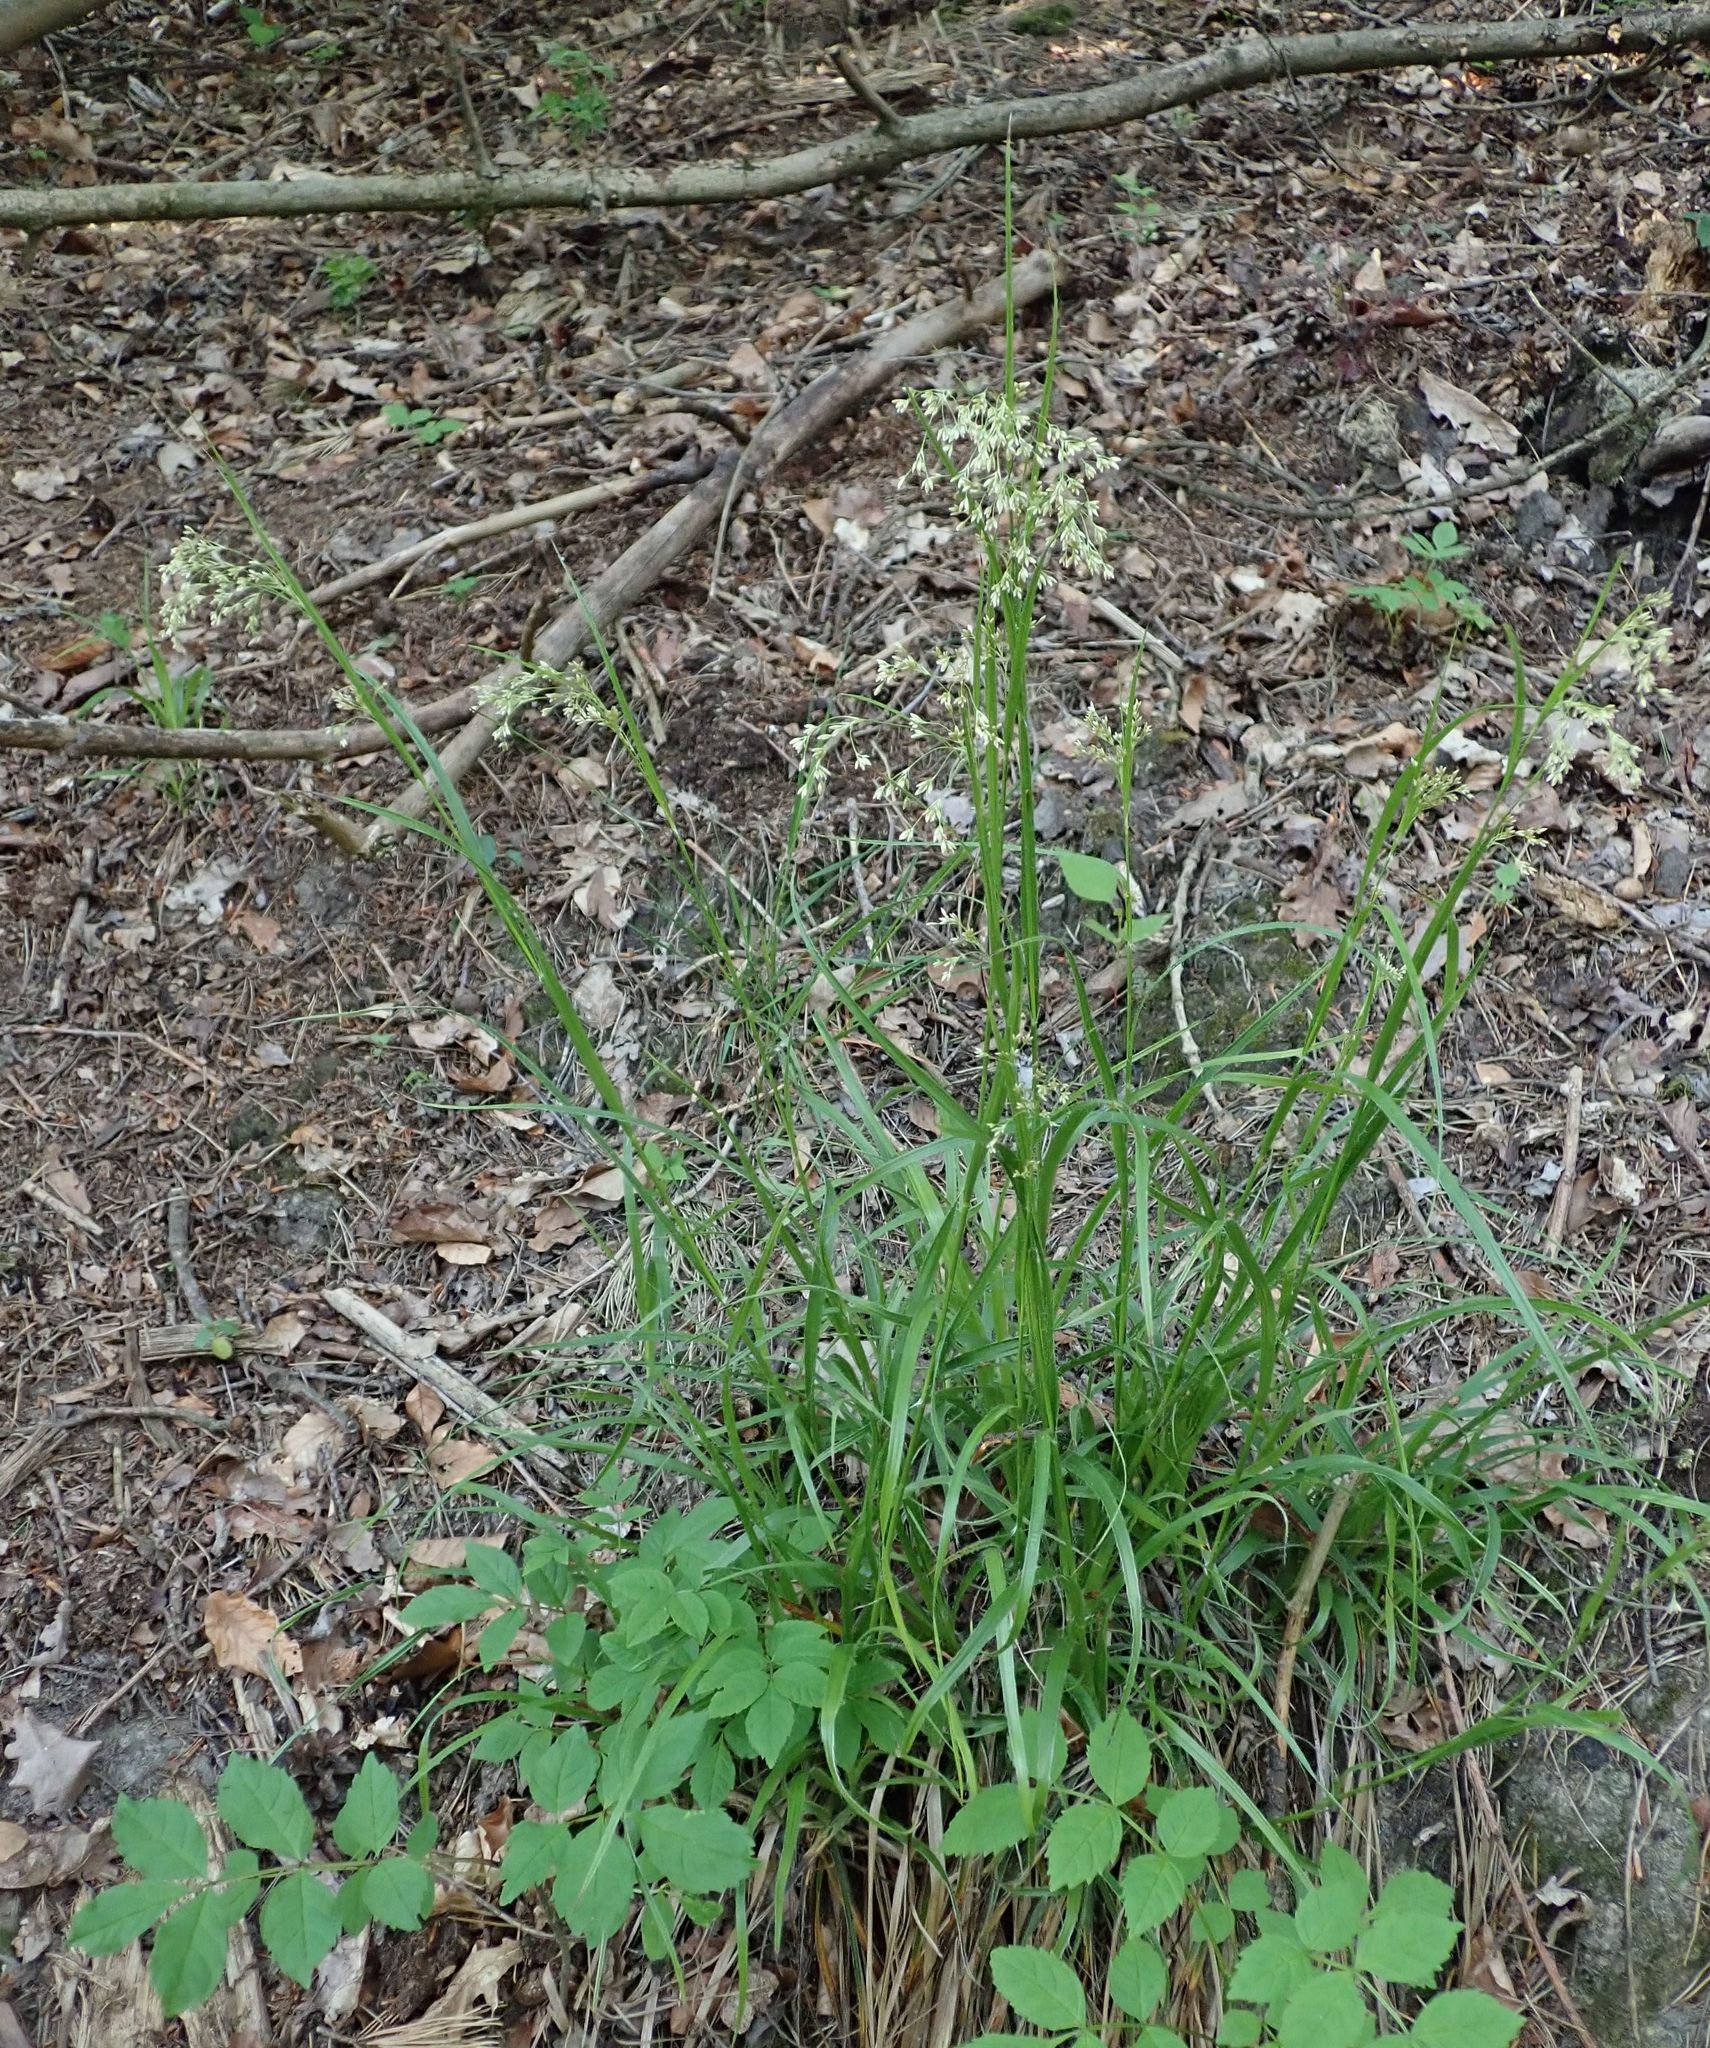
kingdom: Plantae
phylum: Tracheophyta
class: Liliopsida
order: Poales
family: Juncaceae
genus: Luzula
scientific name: Luzula luzuloides
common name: White wood-rush
